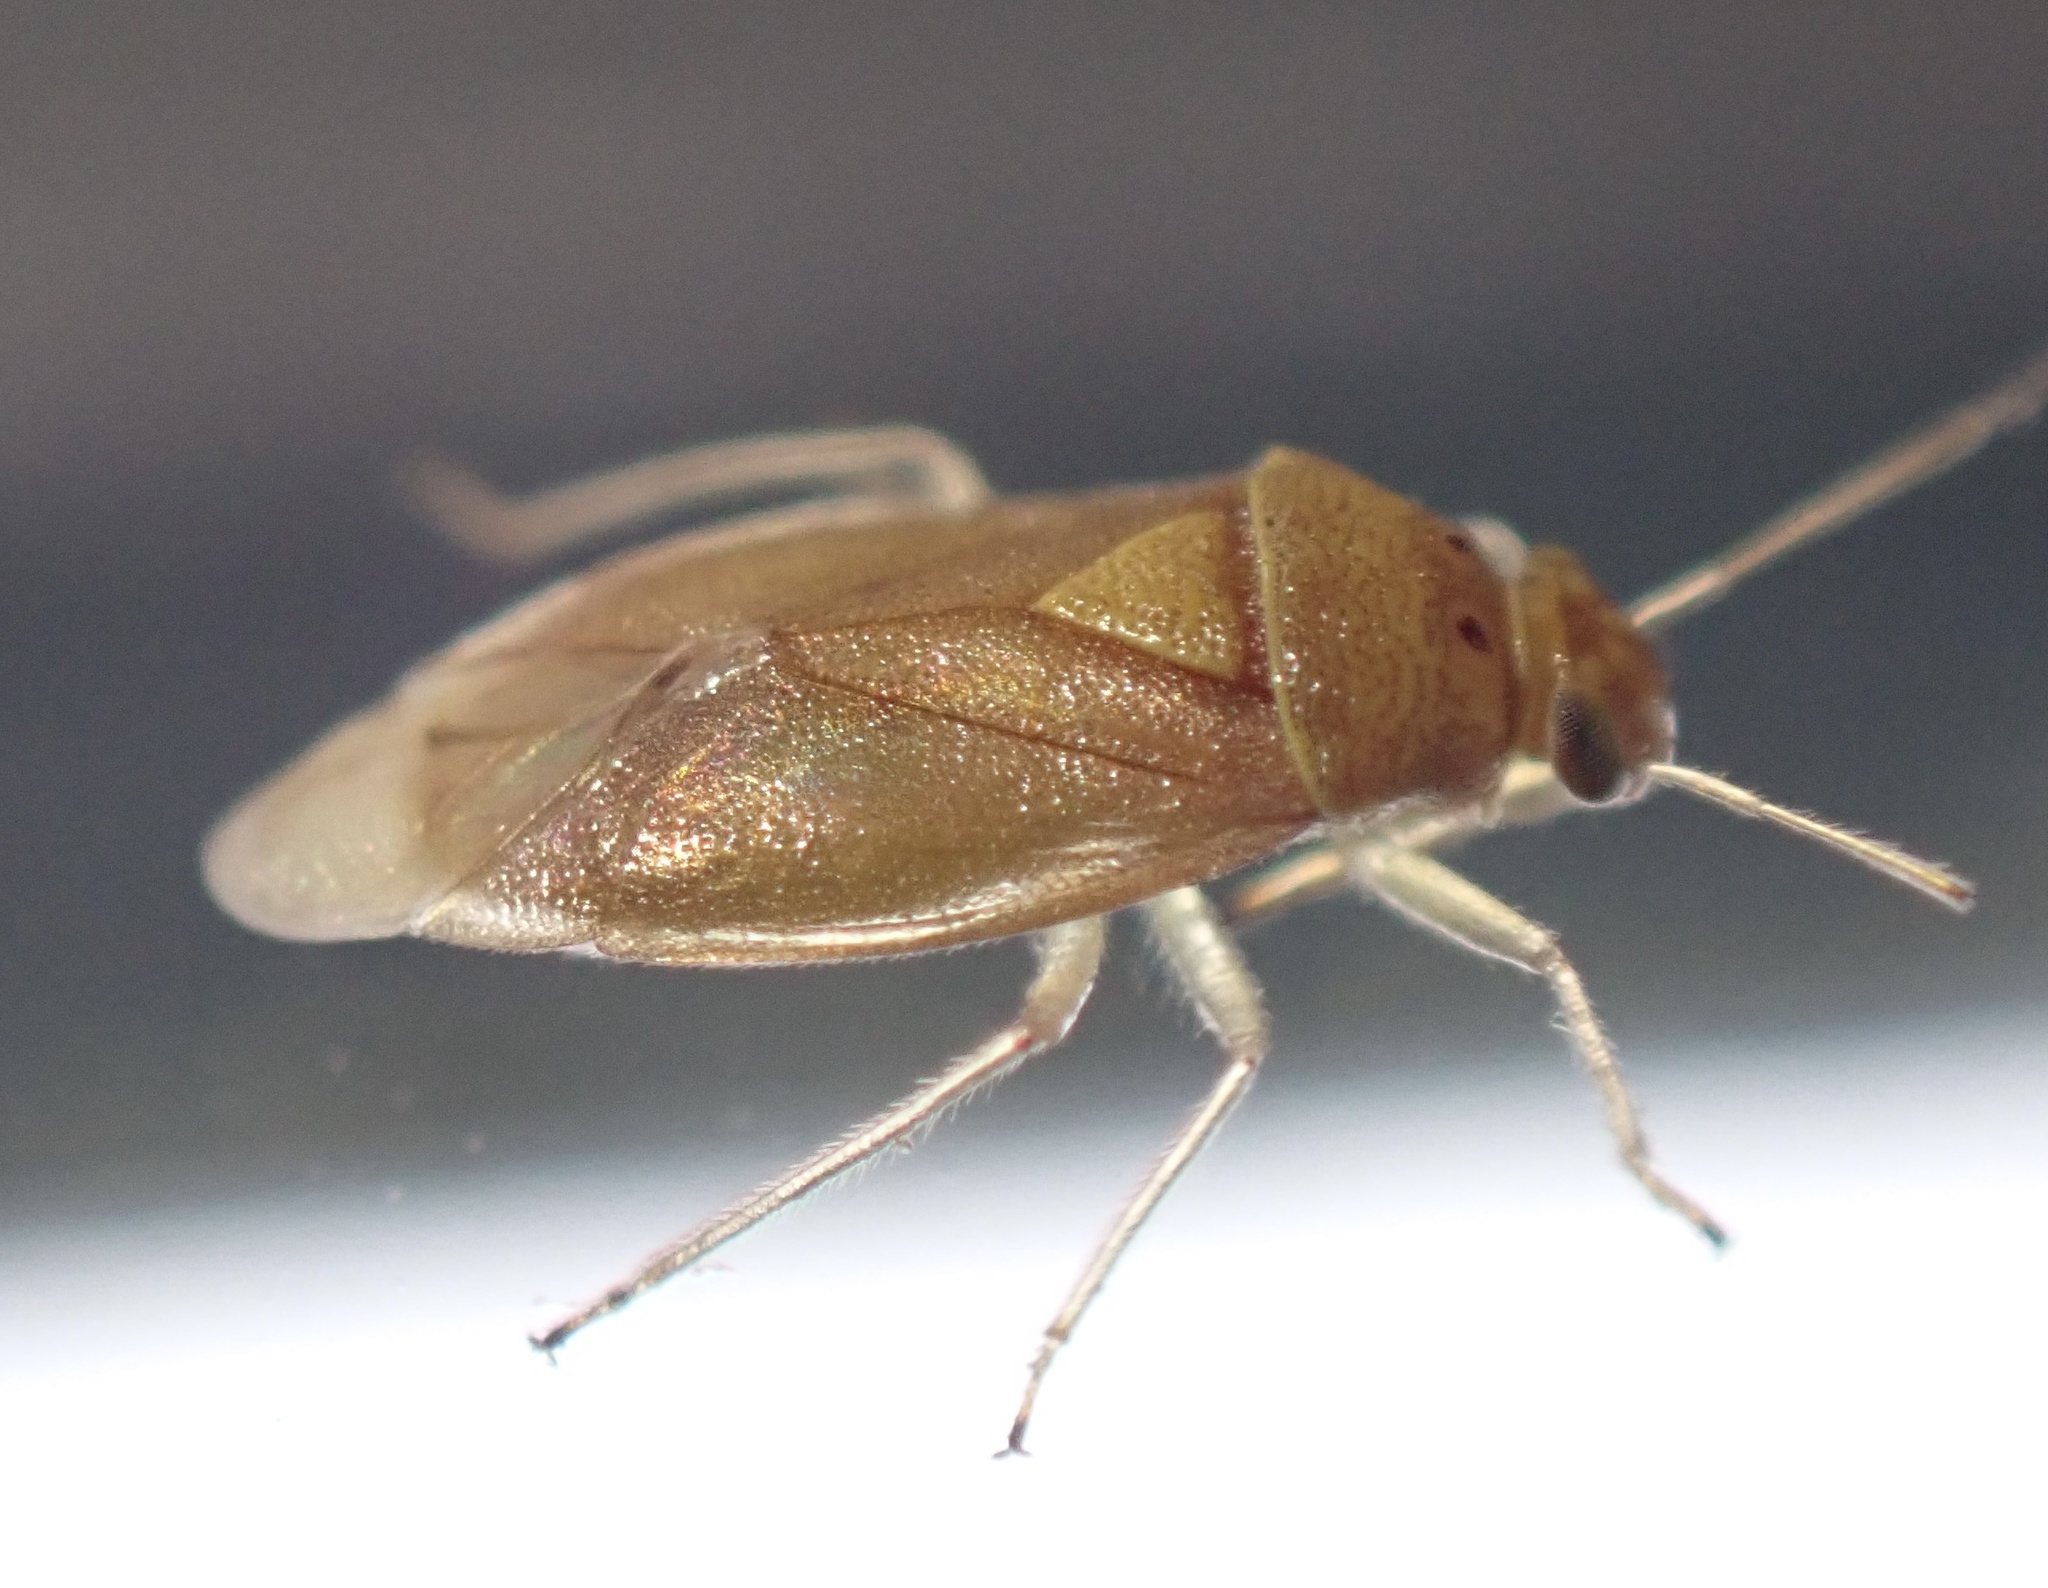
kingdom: Animalia
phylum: Arthropoda
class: Insecta
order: Hemiptera
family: Miridae
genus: Tropidosteptes
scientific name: Tropidosteptes pacificus
